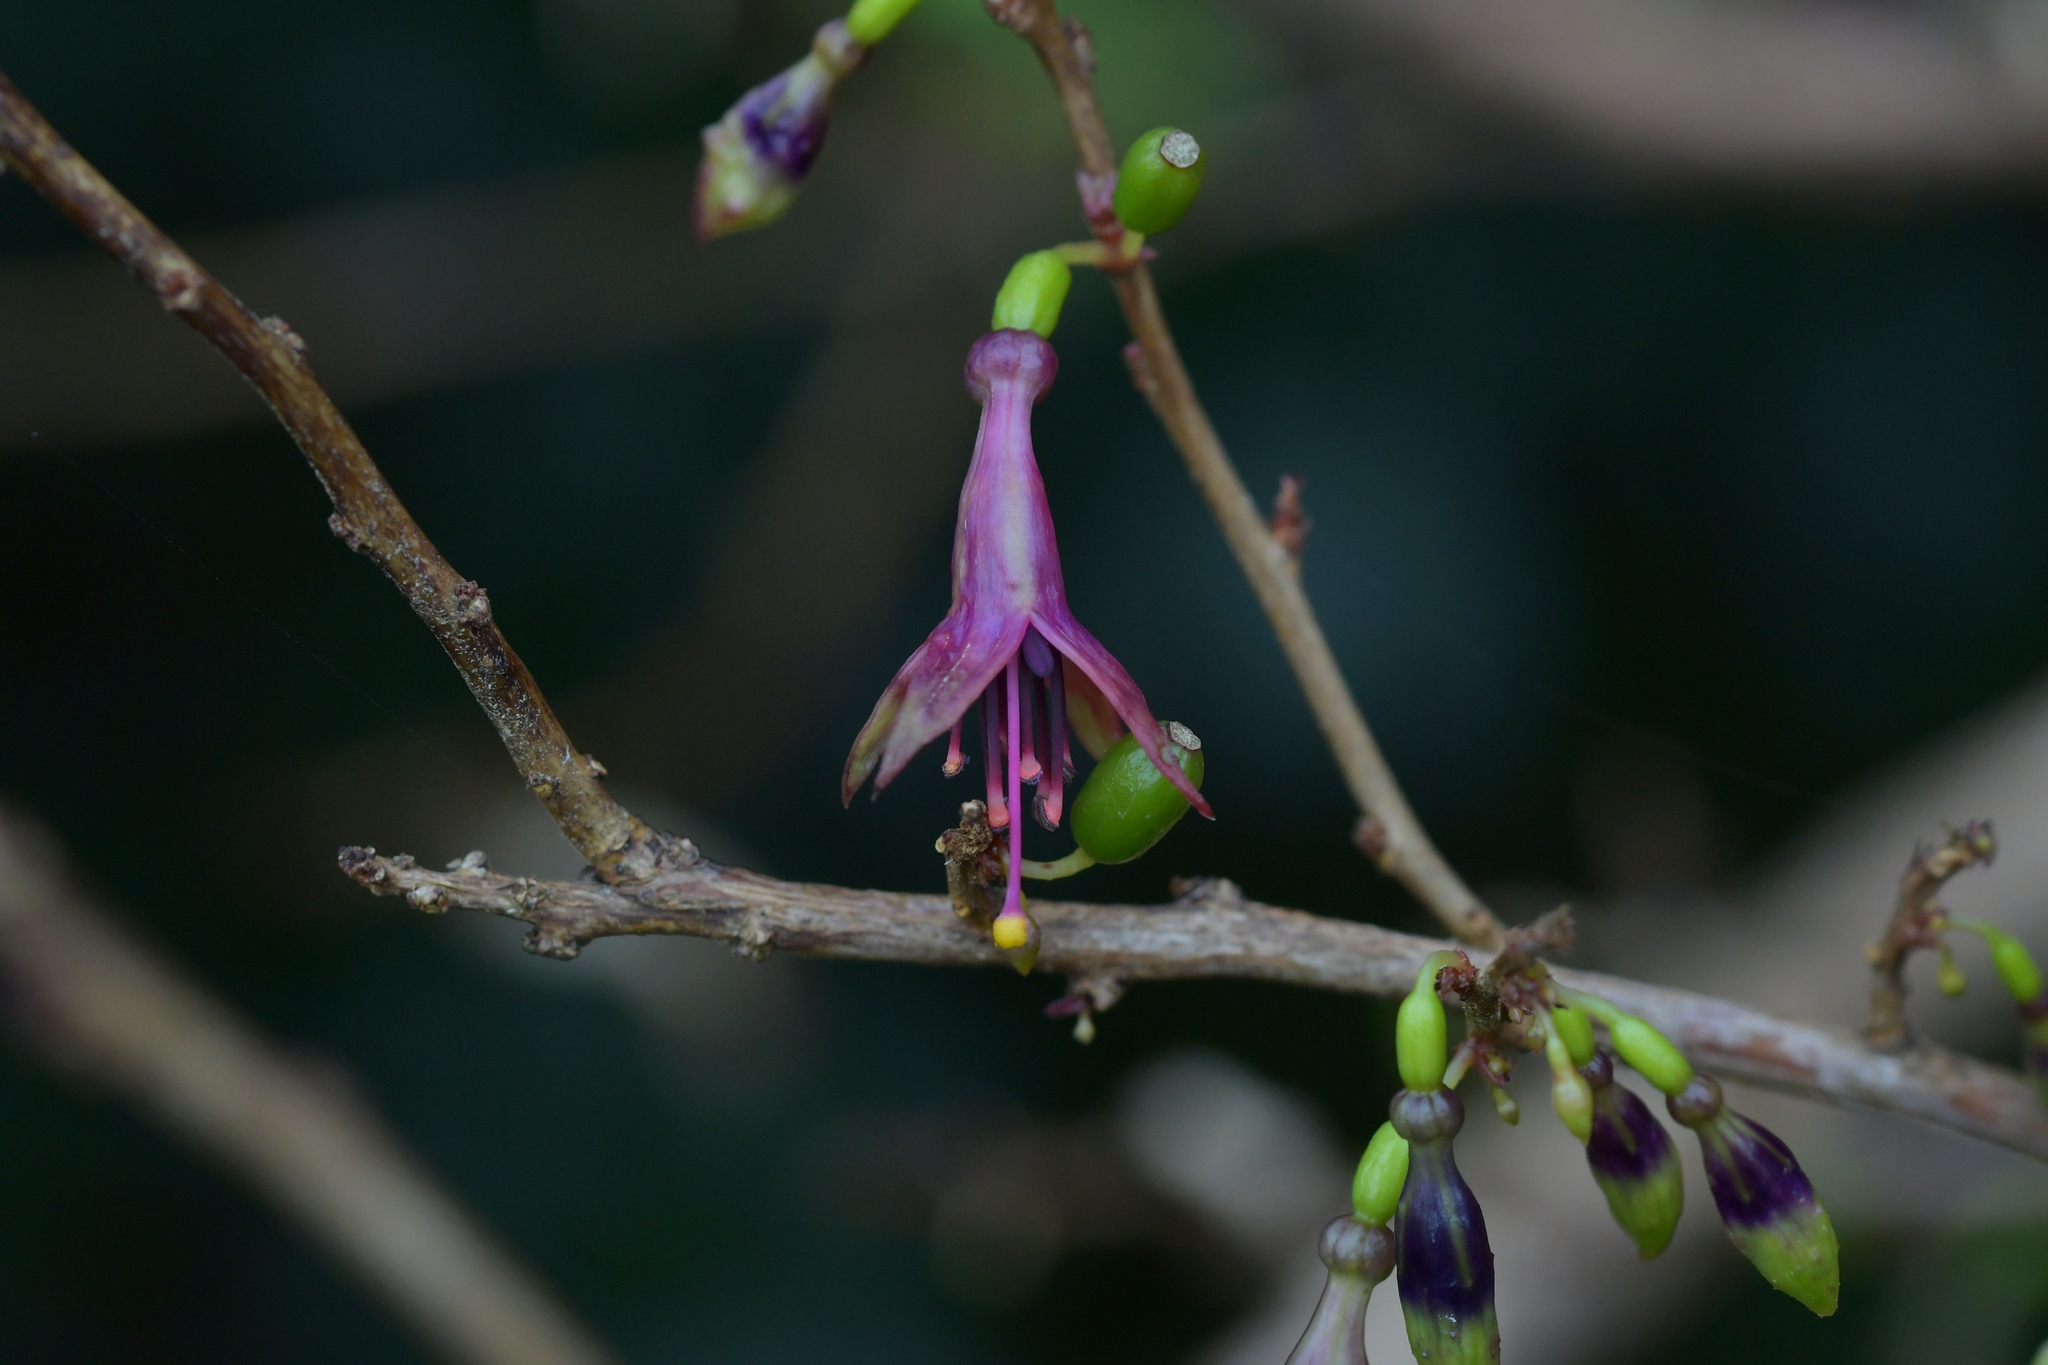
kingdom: Plantae
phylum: Tracheophyta
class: Magnoliopsida
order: Myrtales
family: Onagraceae
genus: Fuchsia
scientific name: Fuchsia excorticata
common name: Tree fuchsia
